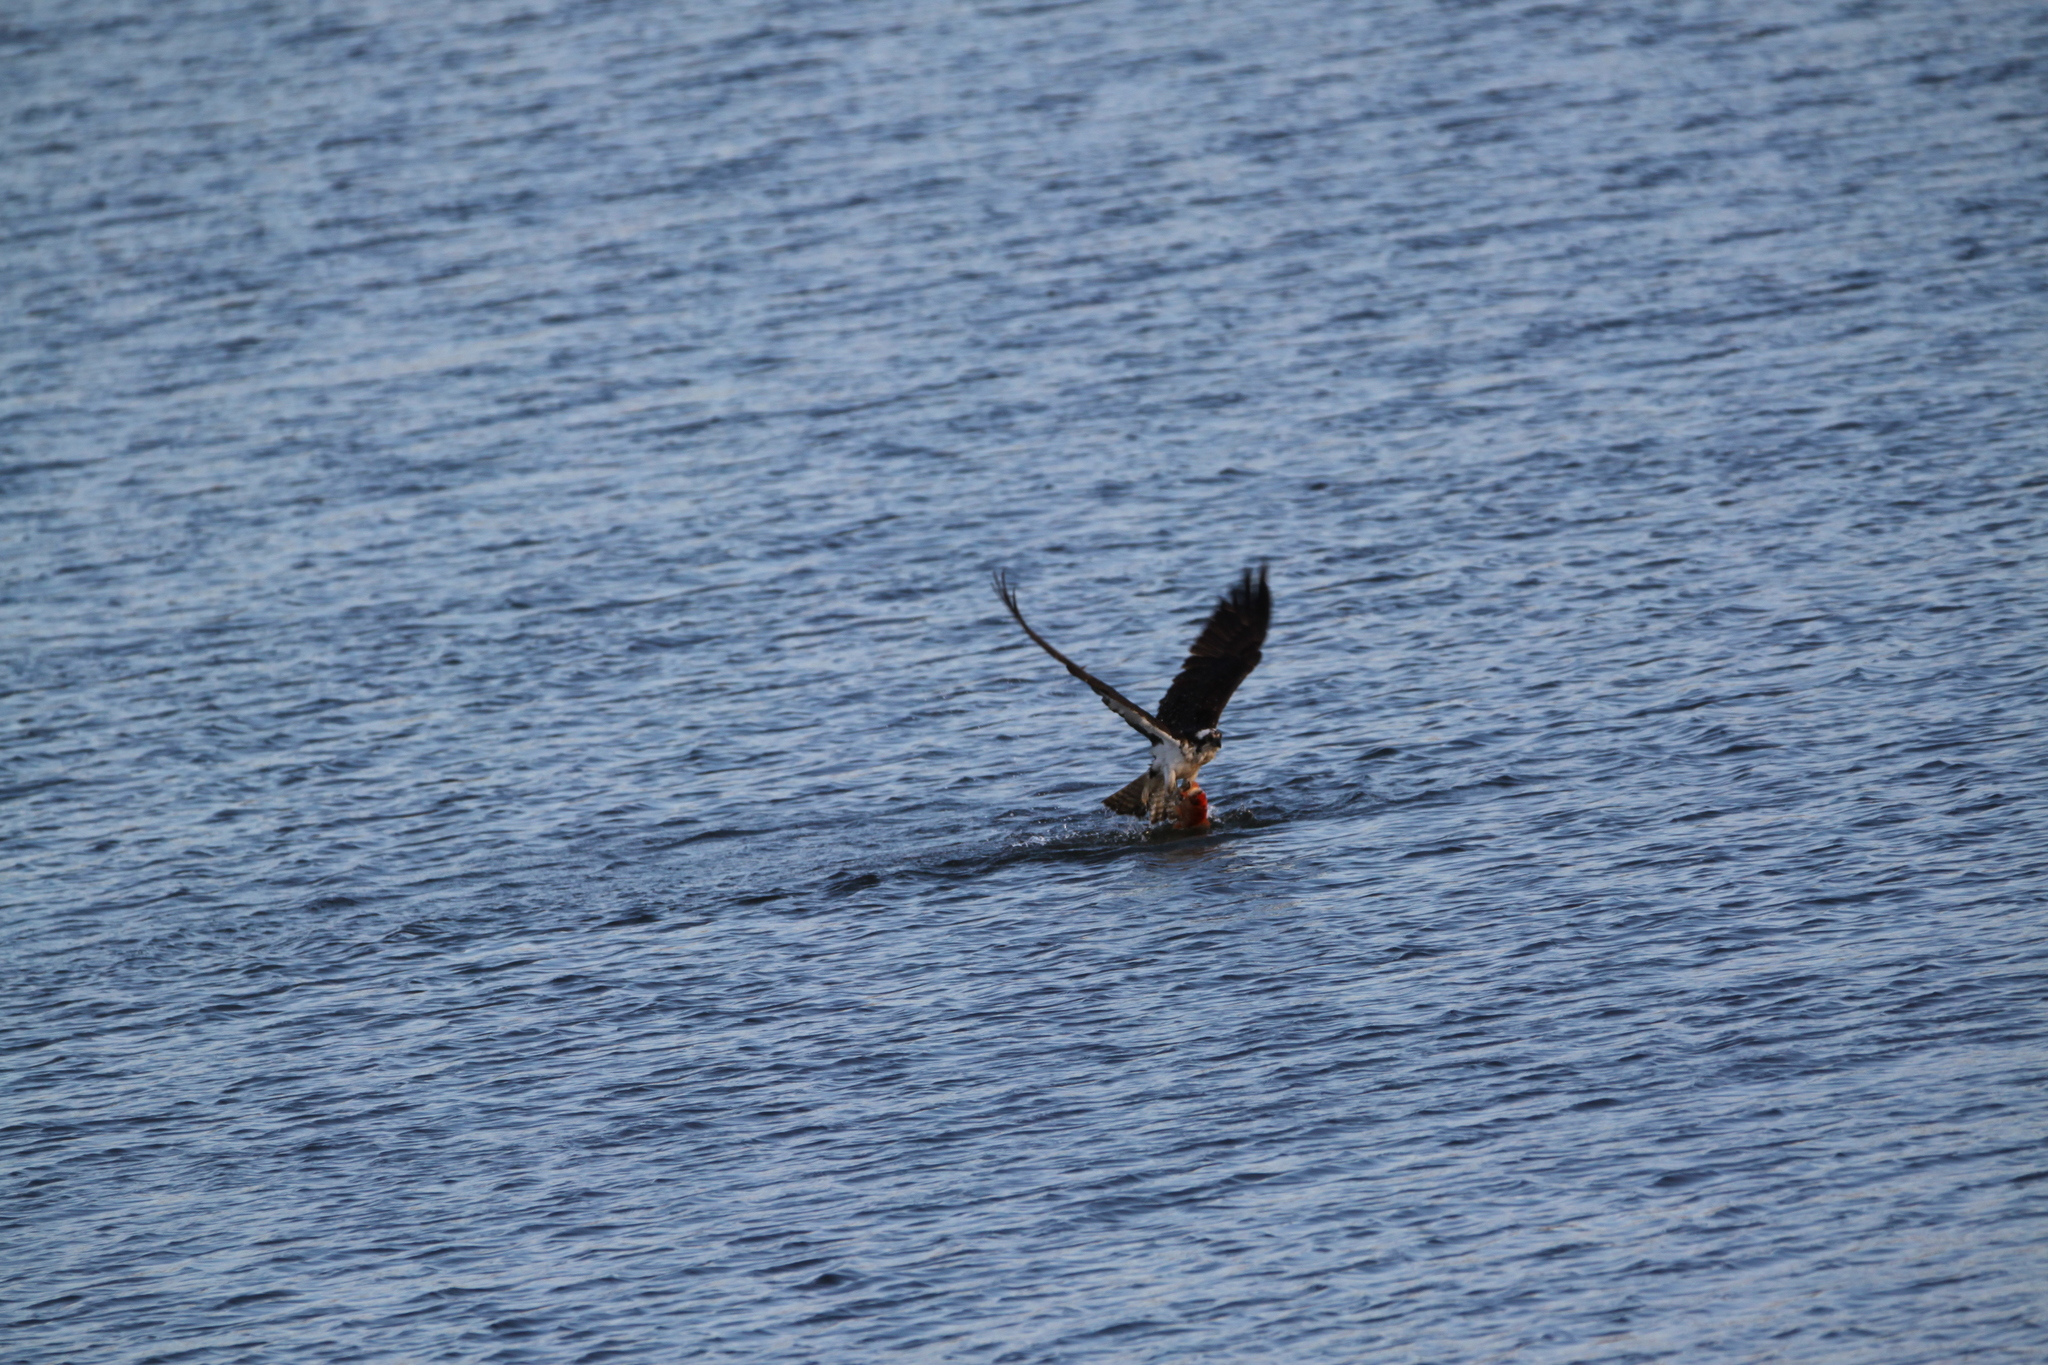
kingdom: Animalia
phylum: Chordata
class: Aves
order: Accipitriformes
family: Pandionidae
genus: Pandion
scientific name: Pandion haliaetus
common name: Osprey
